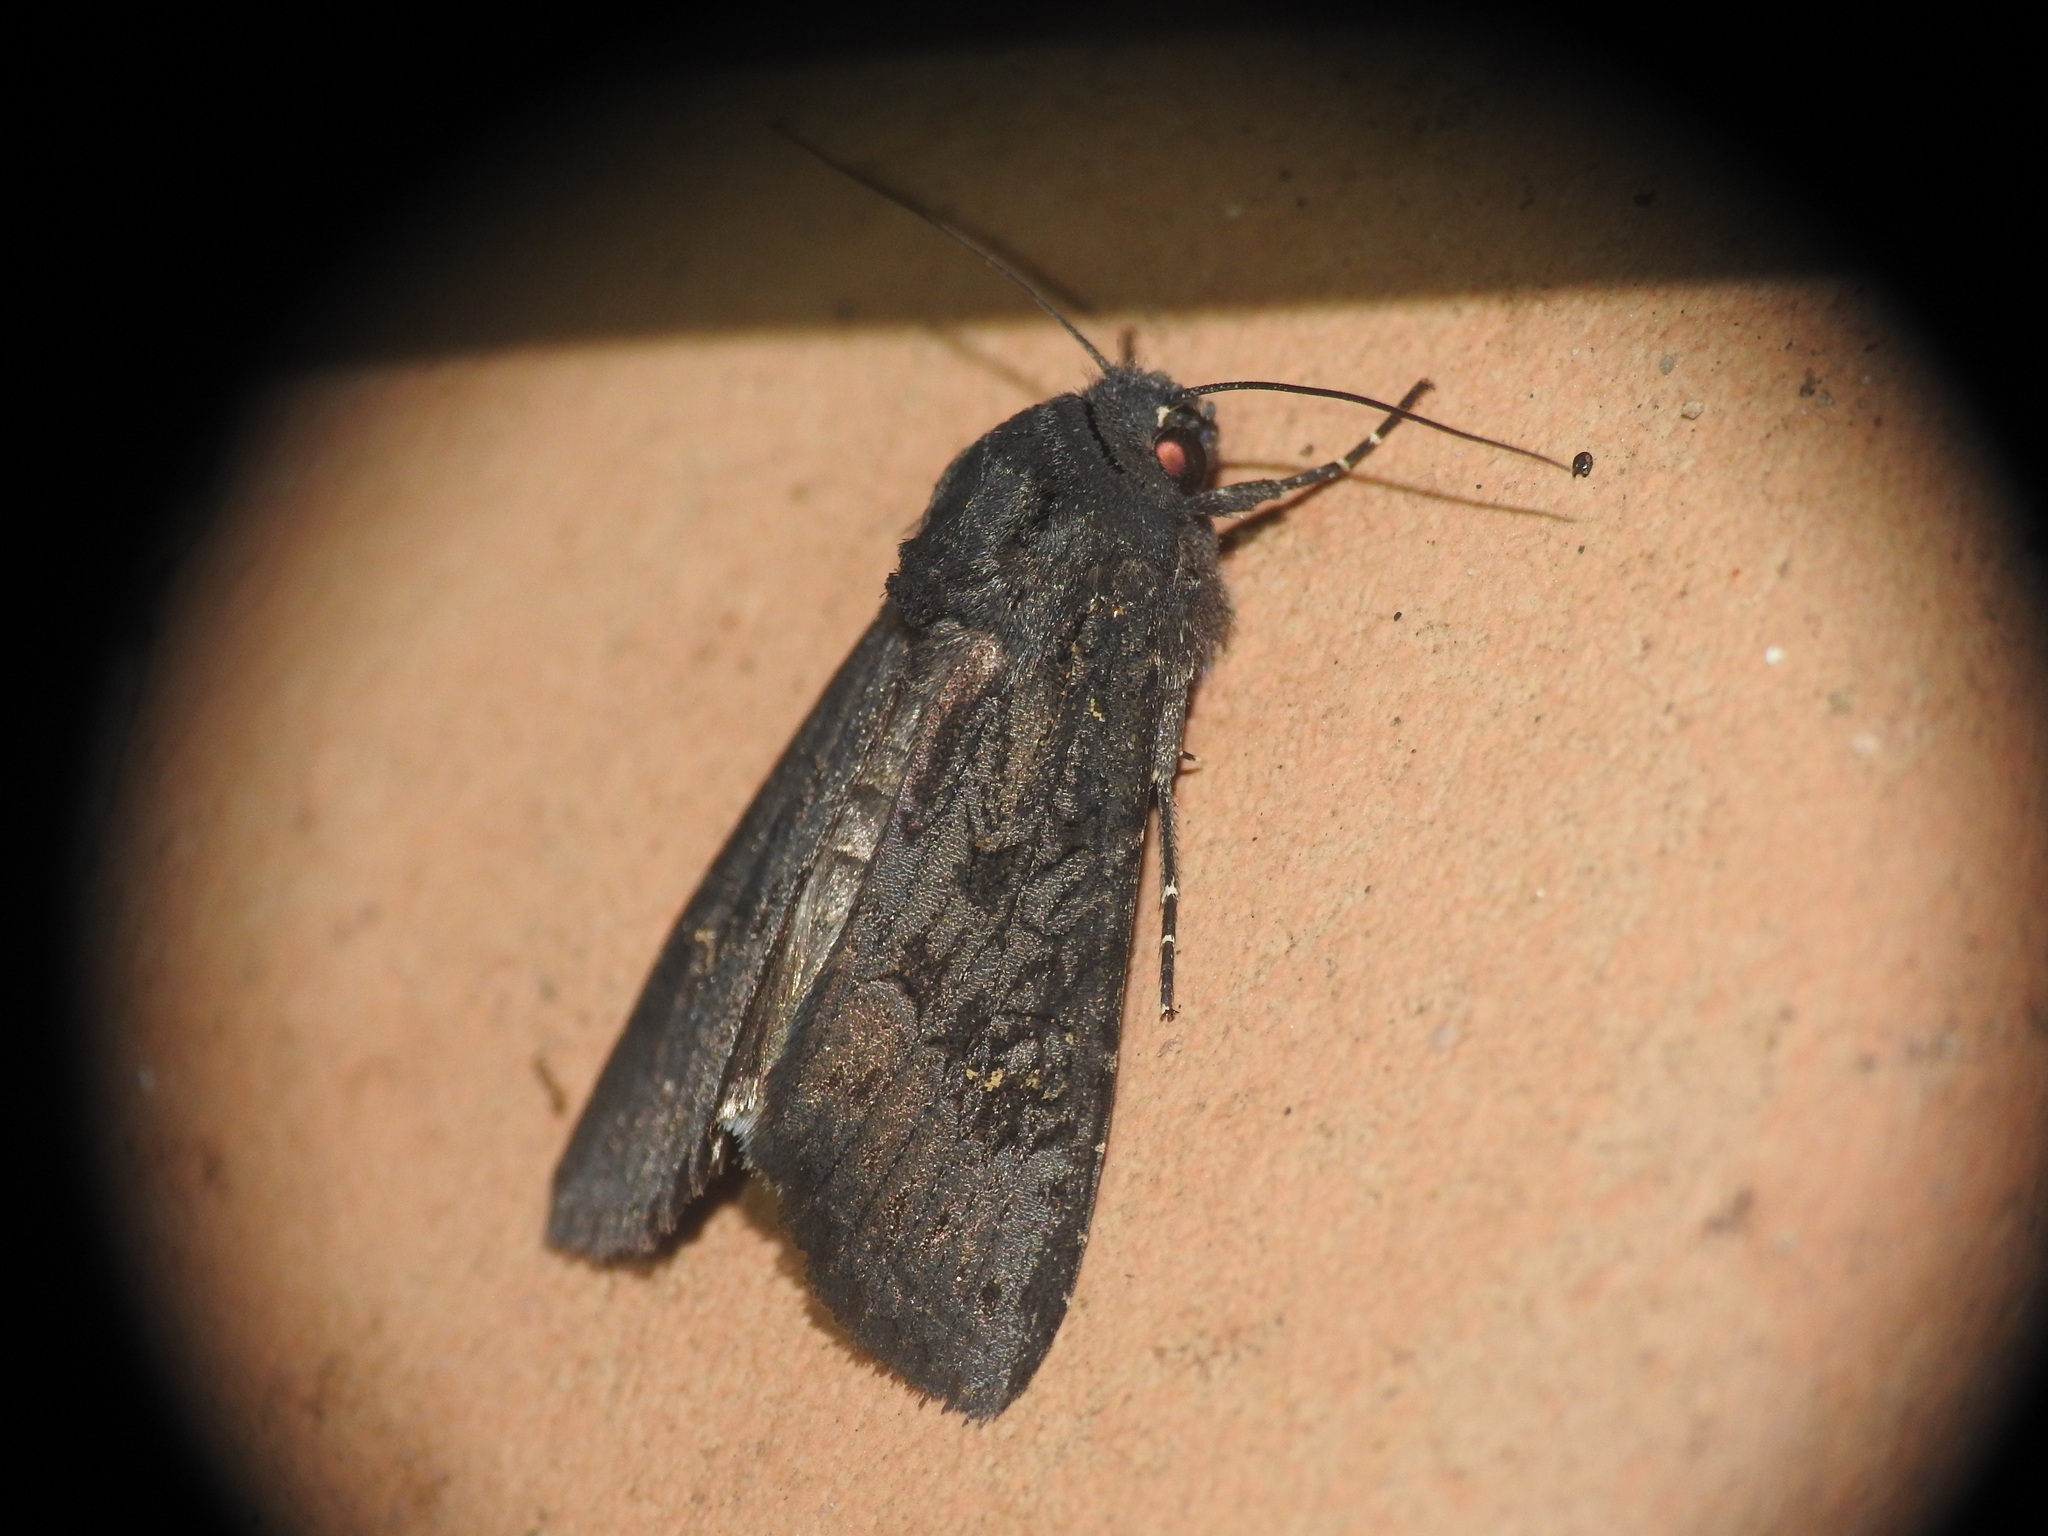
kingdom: Animalia
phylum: Arthropoda
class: Insecta
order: Lepidoptera
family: Noctuidae
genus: Aporophyla
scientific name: Aporophyla nigra
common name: Black rustic
